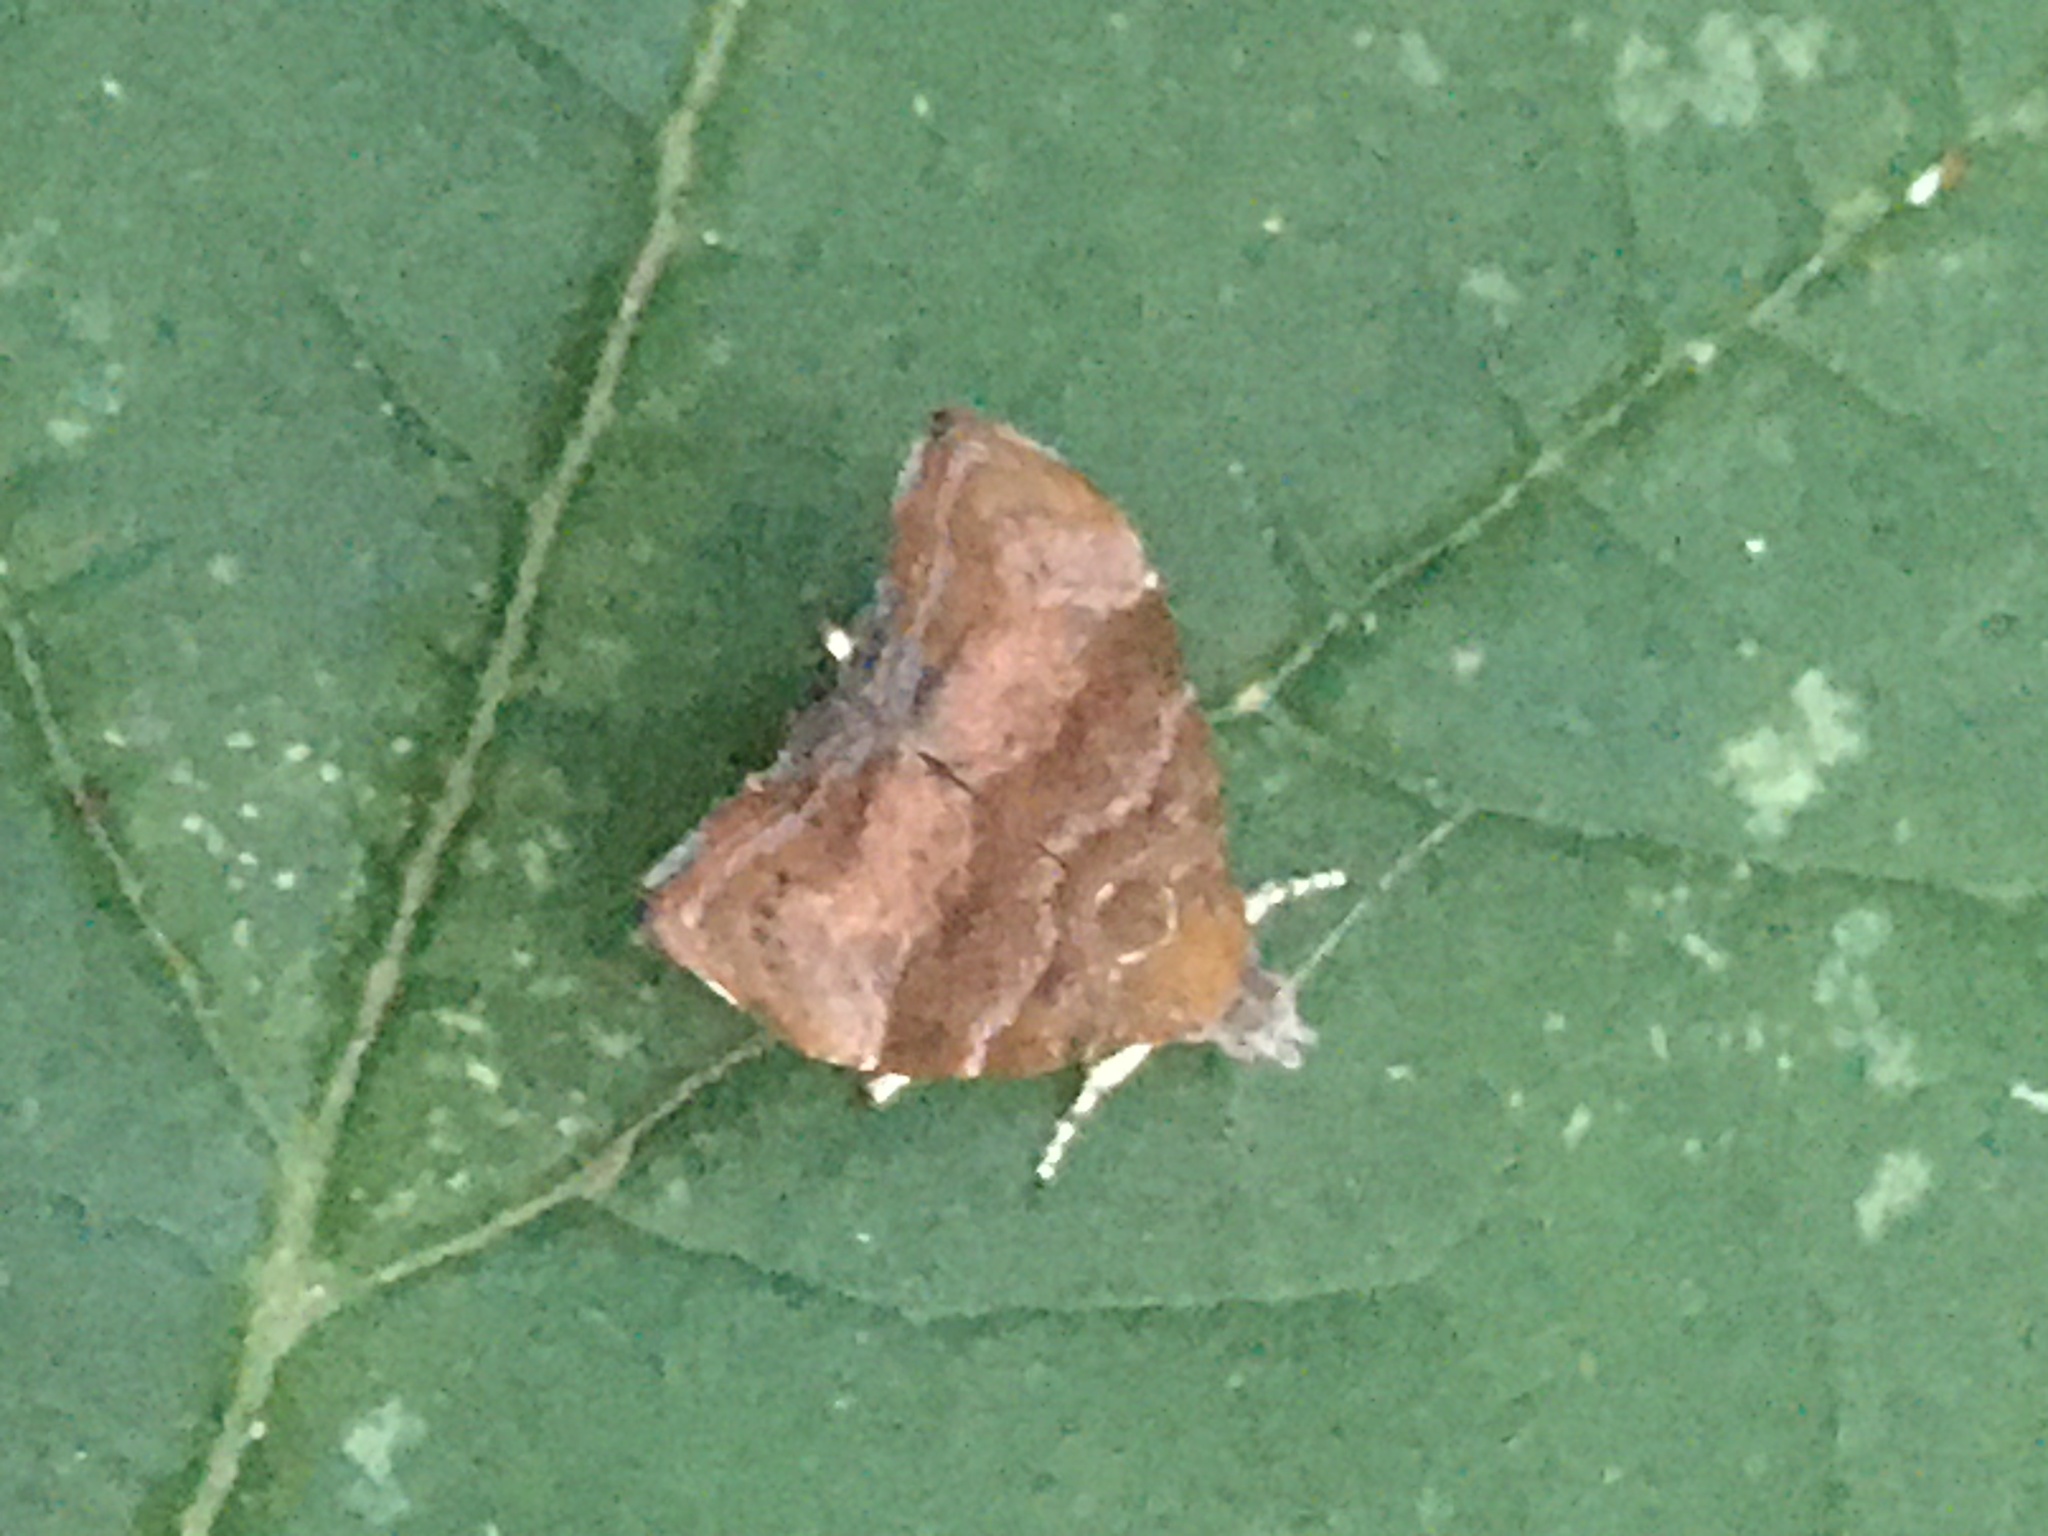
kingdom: Animalia
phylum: Arthropoda
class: Insecta
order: Lepidoptera
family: Choreutidae
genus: Anthophila
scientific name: Anthophila nemorana
